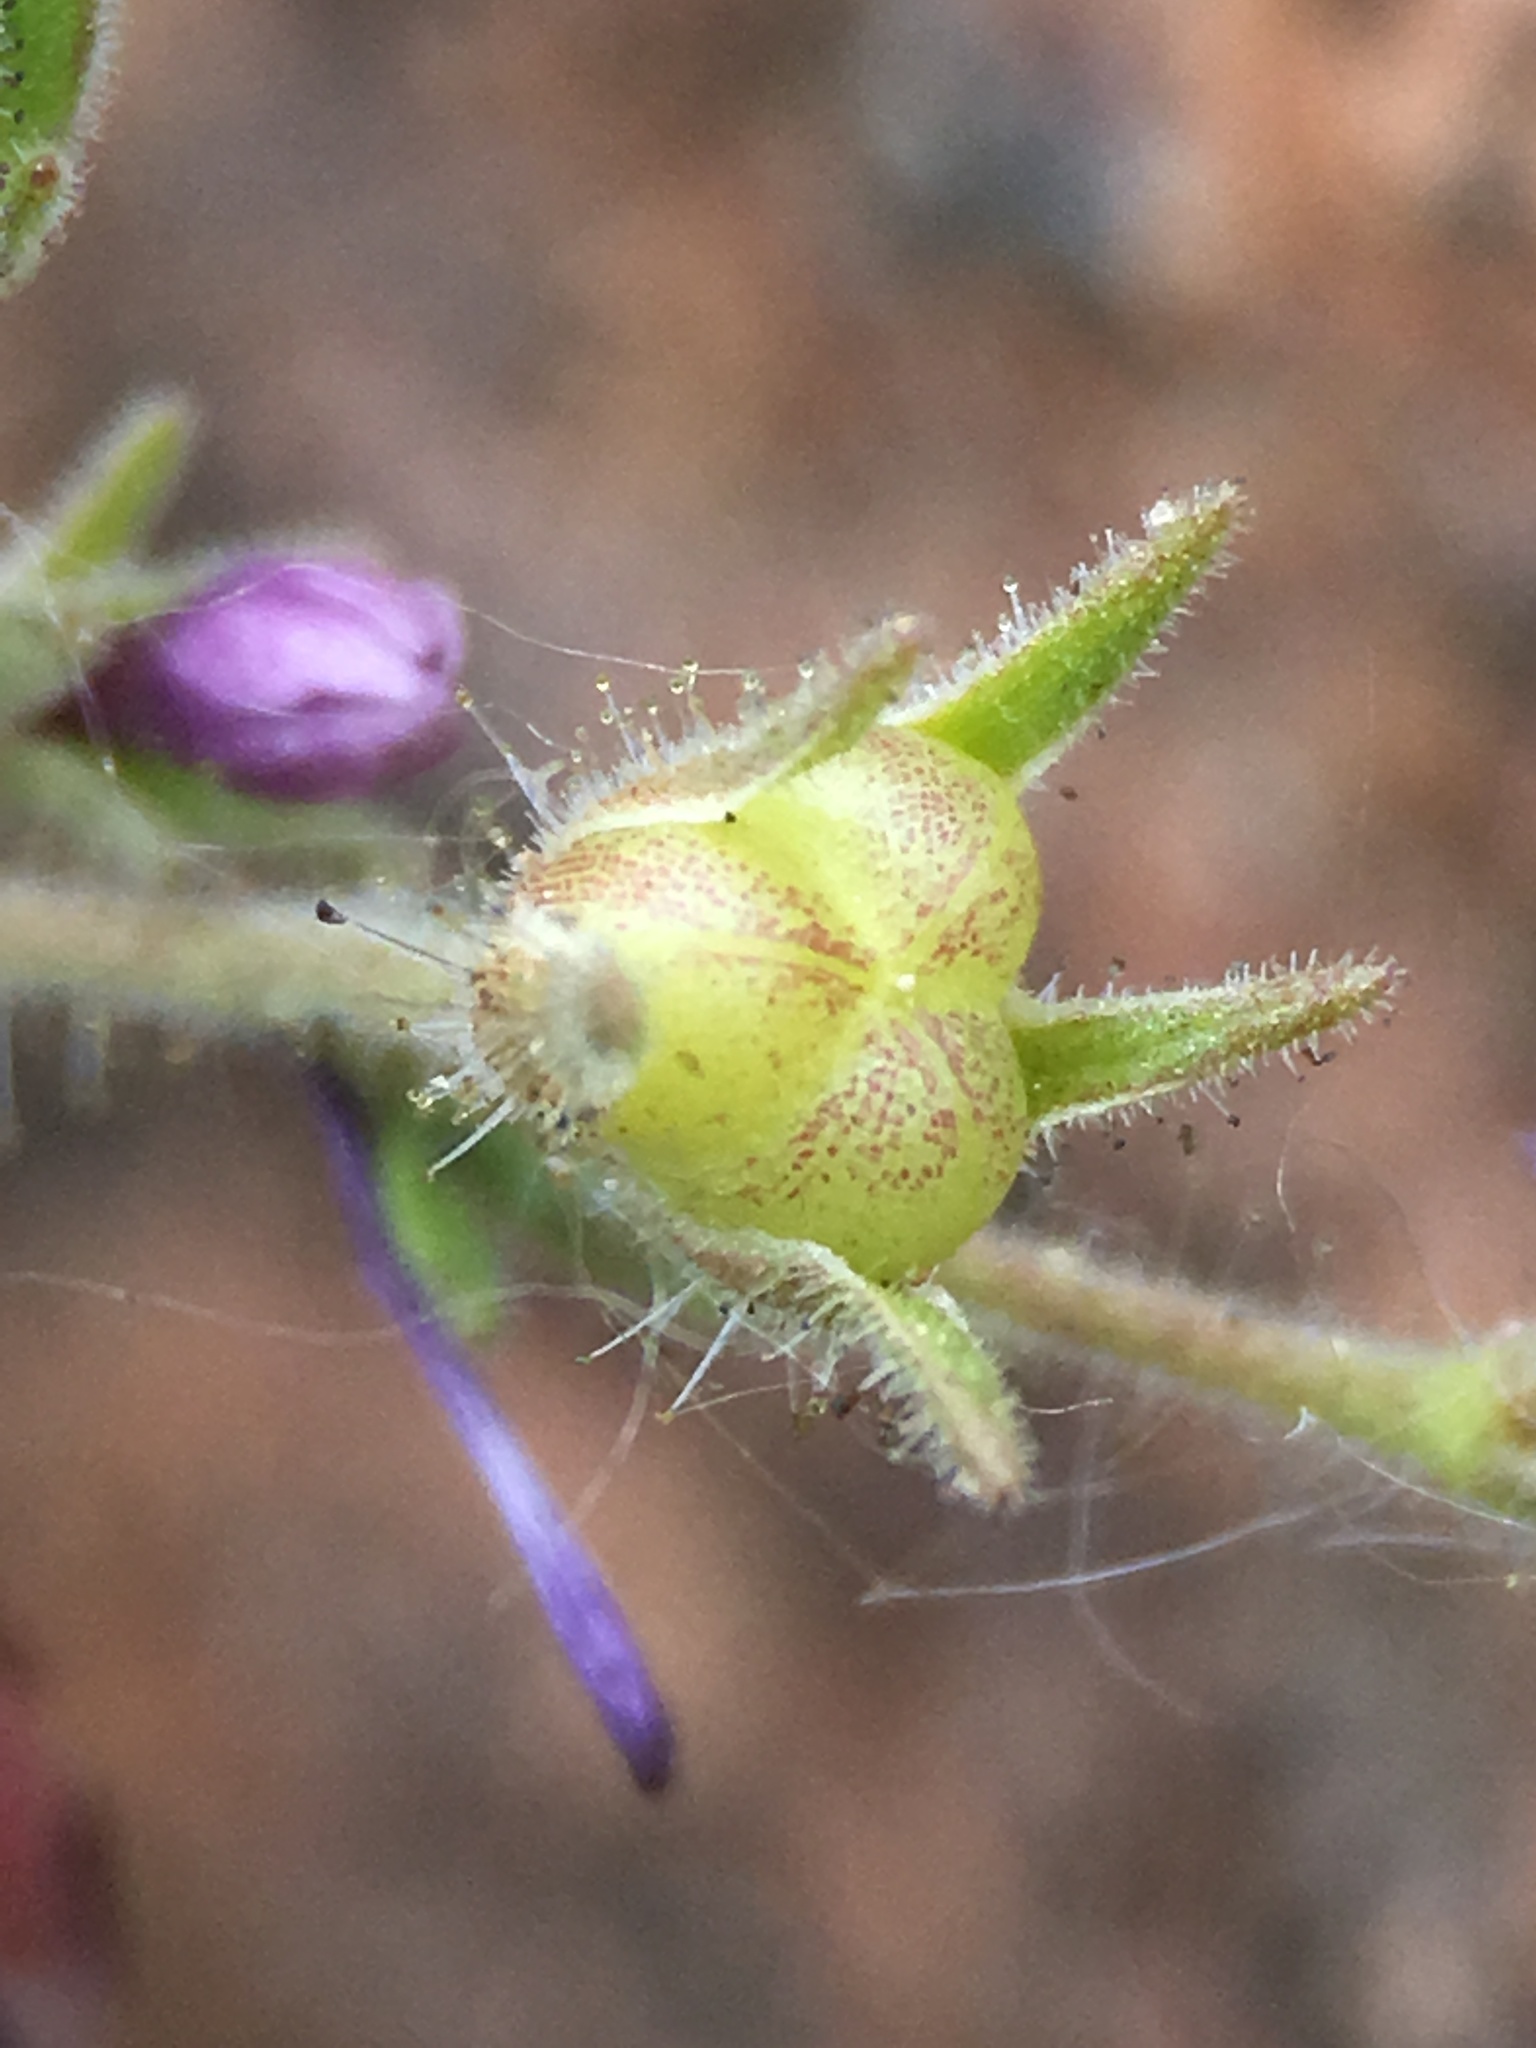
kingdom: Plantae
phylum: Tracheophyta
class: Magnoliopsida
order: Ericales
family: Polemoniaceae
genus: Allophyllum
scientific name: Allophyllum glutinosum
